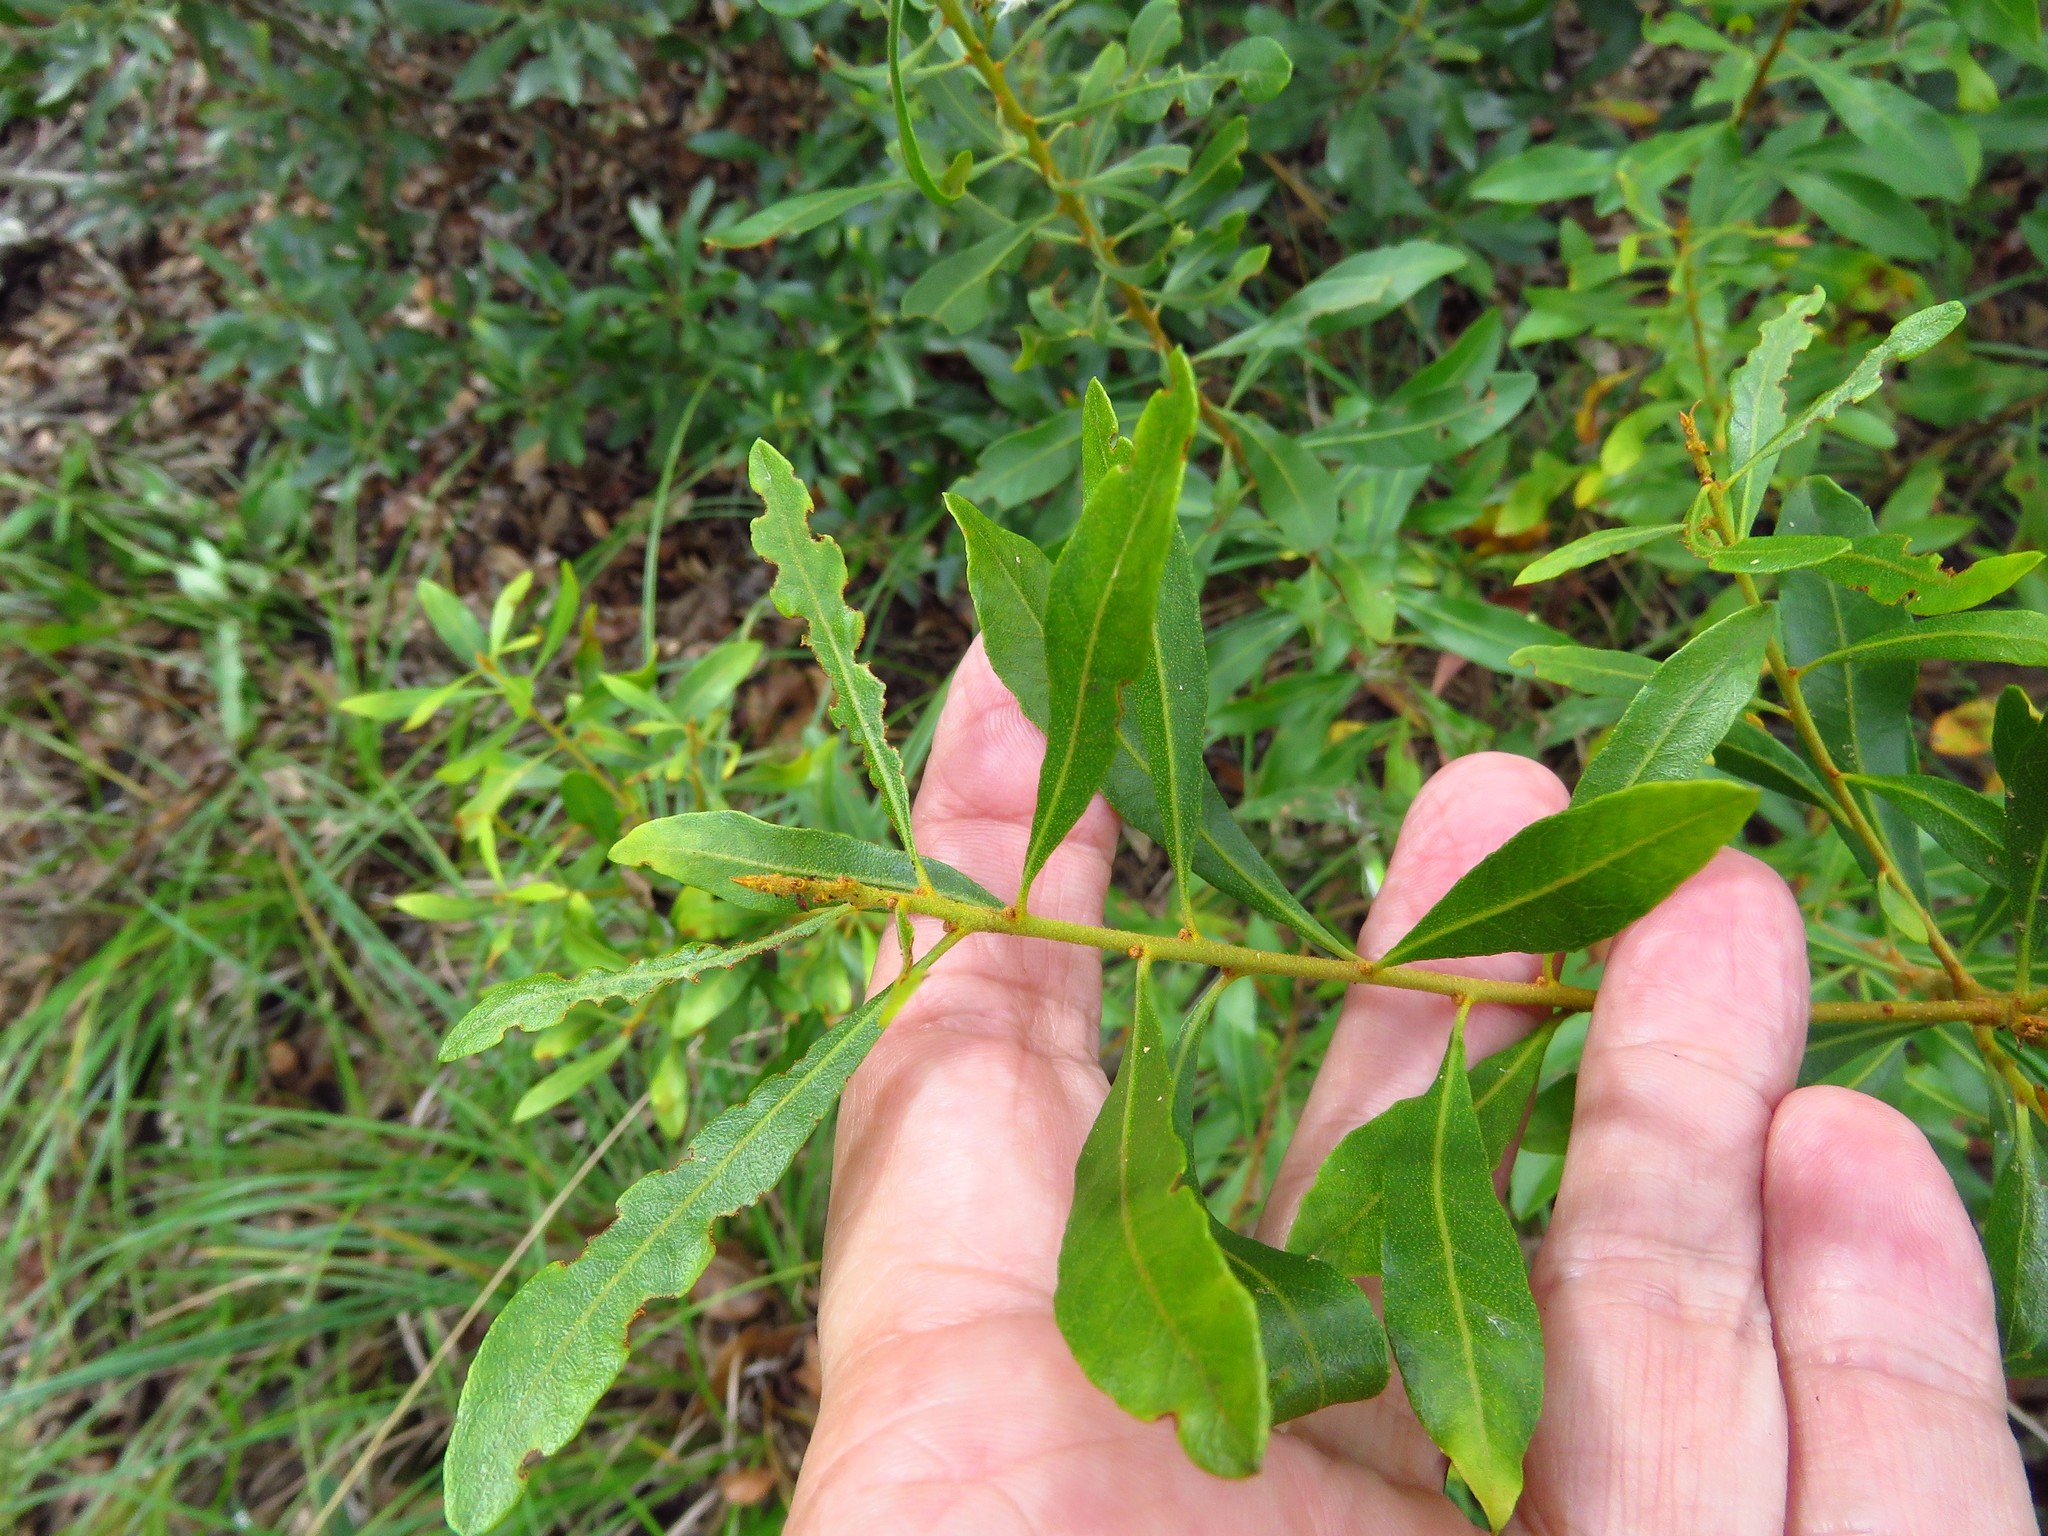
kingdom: Plantae
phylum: Tracheophyta
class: Magnoliopsida
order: Fagales
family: Myricaceae
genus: Morella
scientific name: Morella cerifera
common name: Wax myrtle
